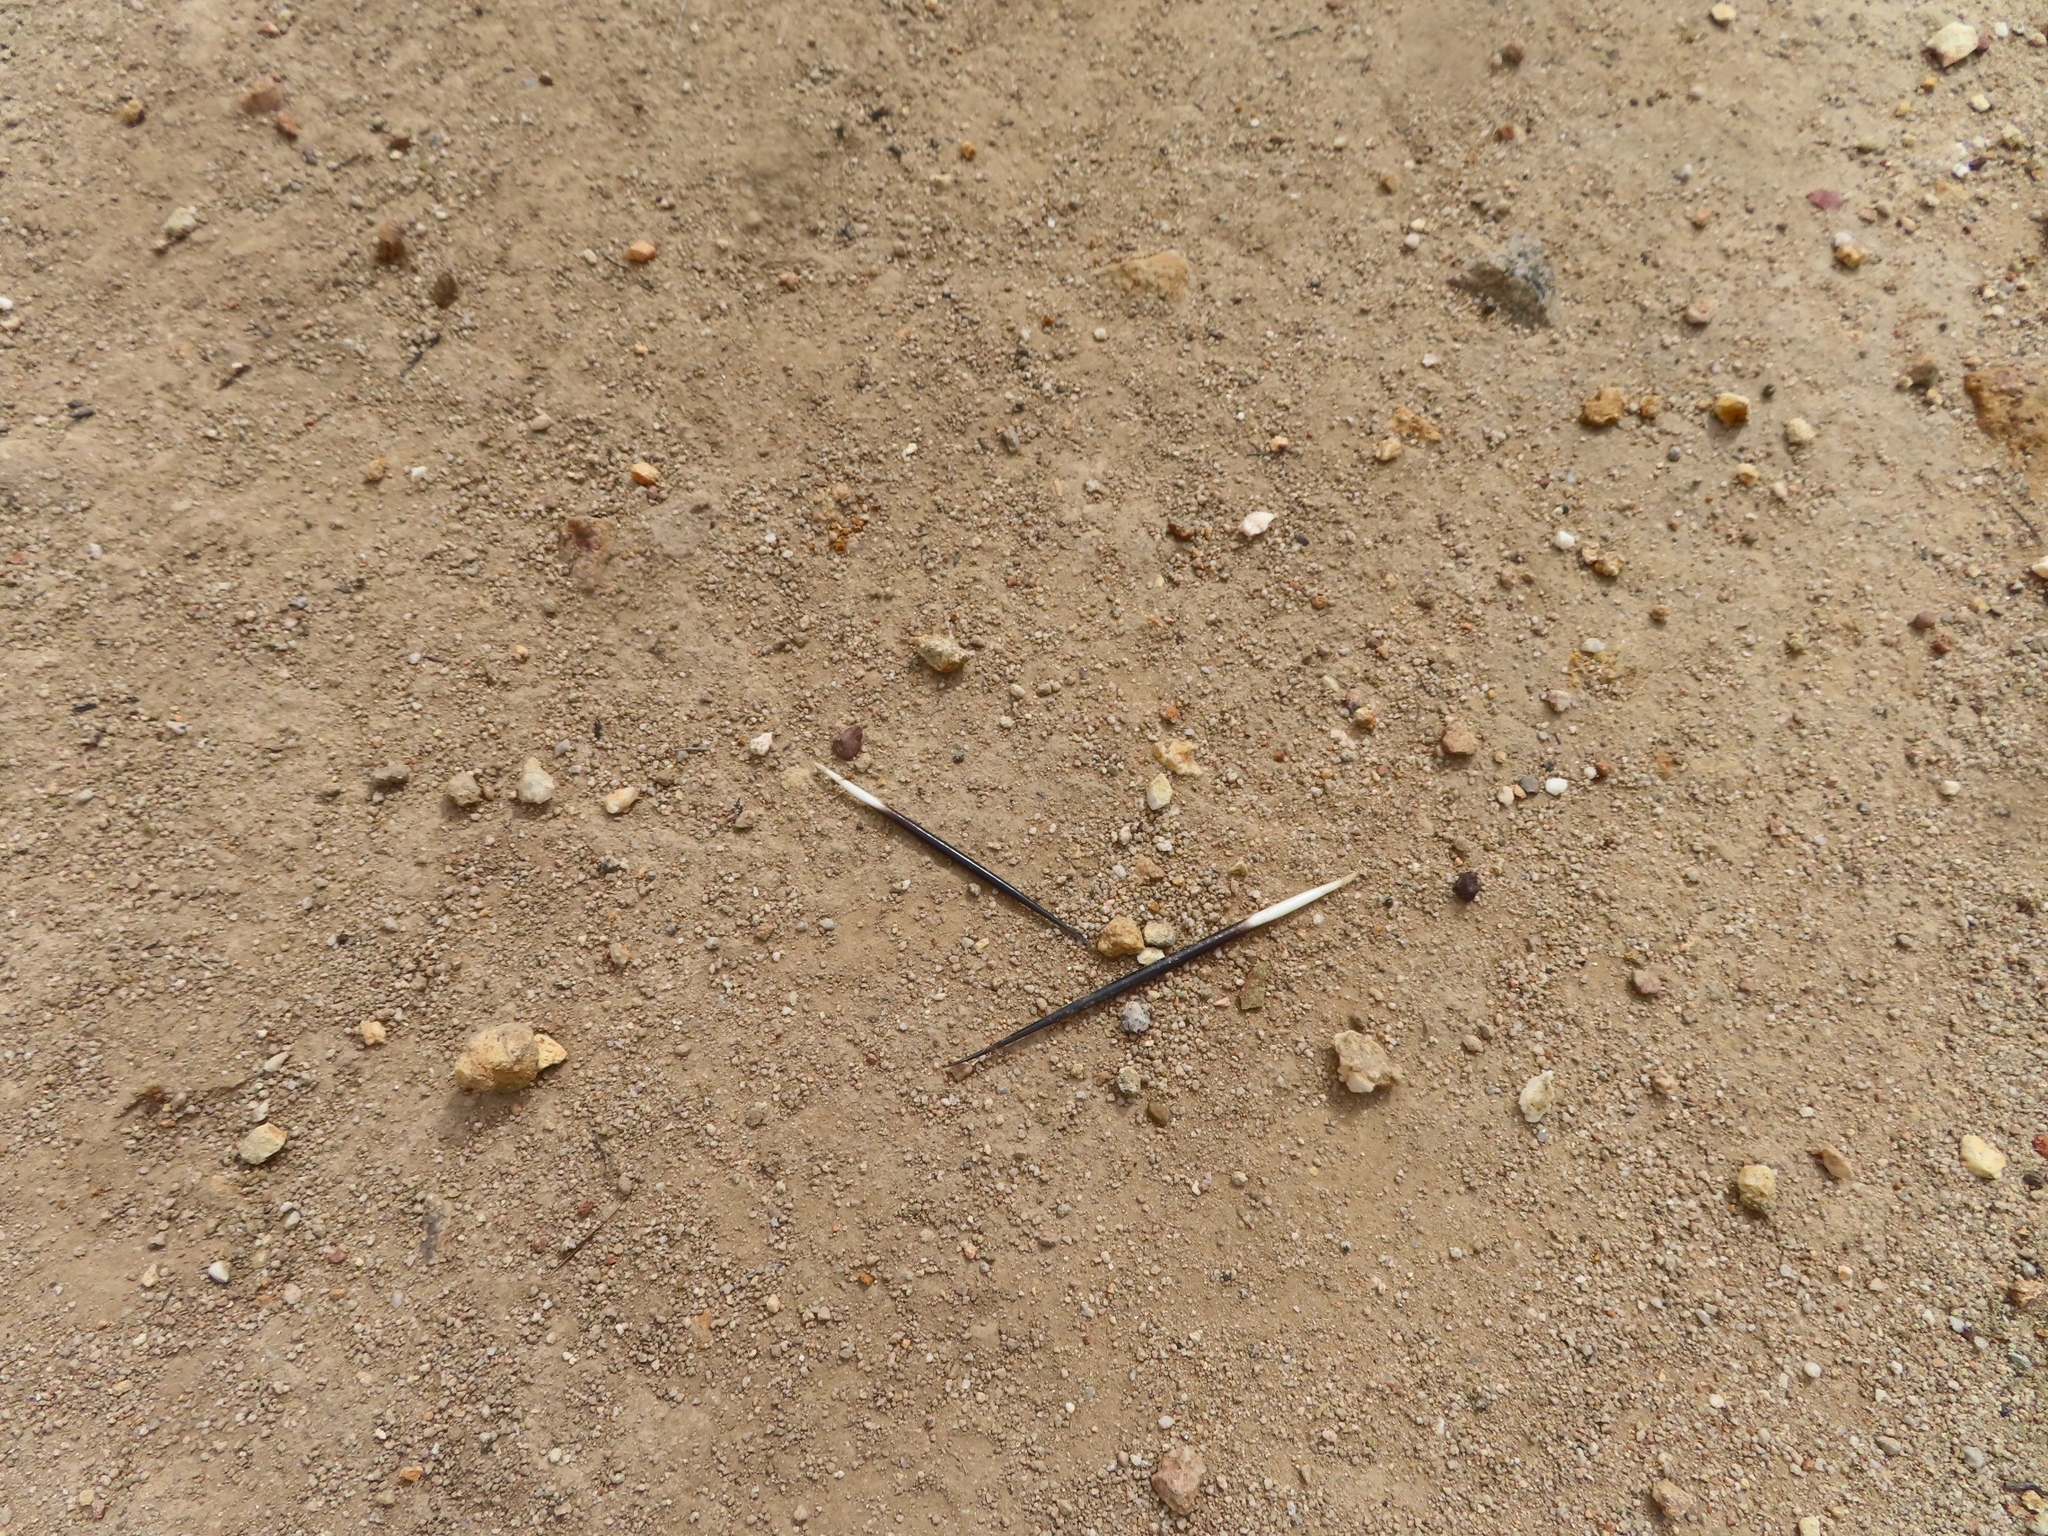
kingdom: Animalia
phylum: Chordata
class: Mammalia
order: Rodentia
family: Hystricidae
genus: Hystrix
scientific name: Hystrix africaeaustralis
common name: Cape porcupine
